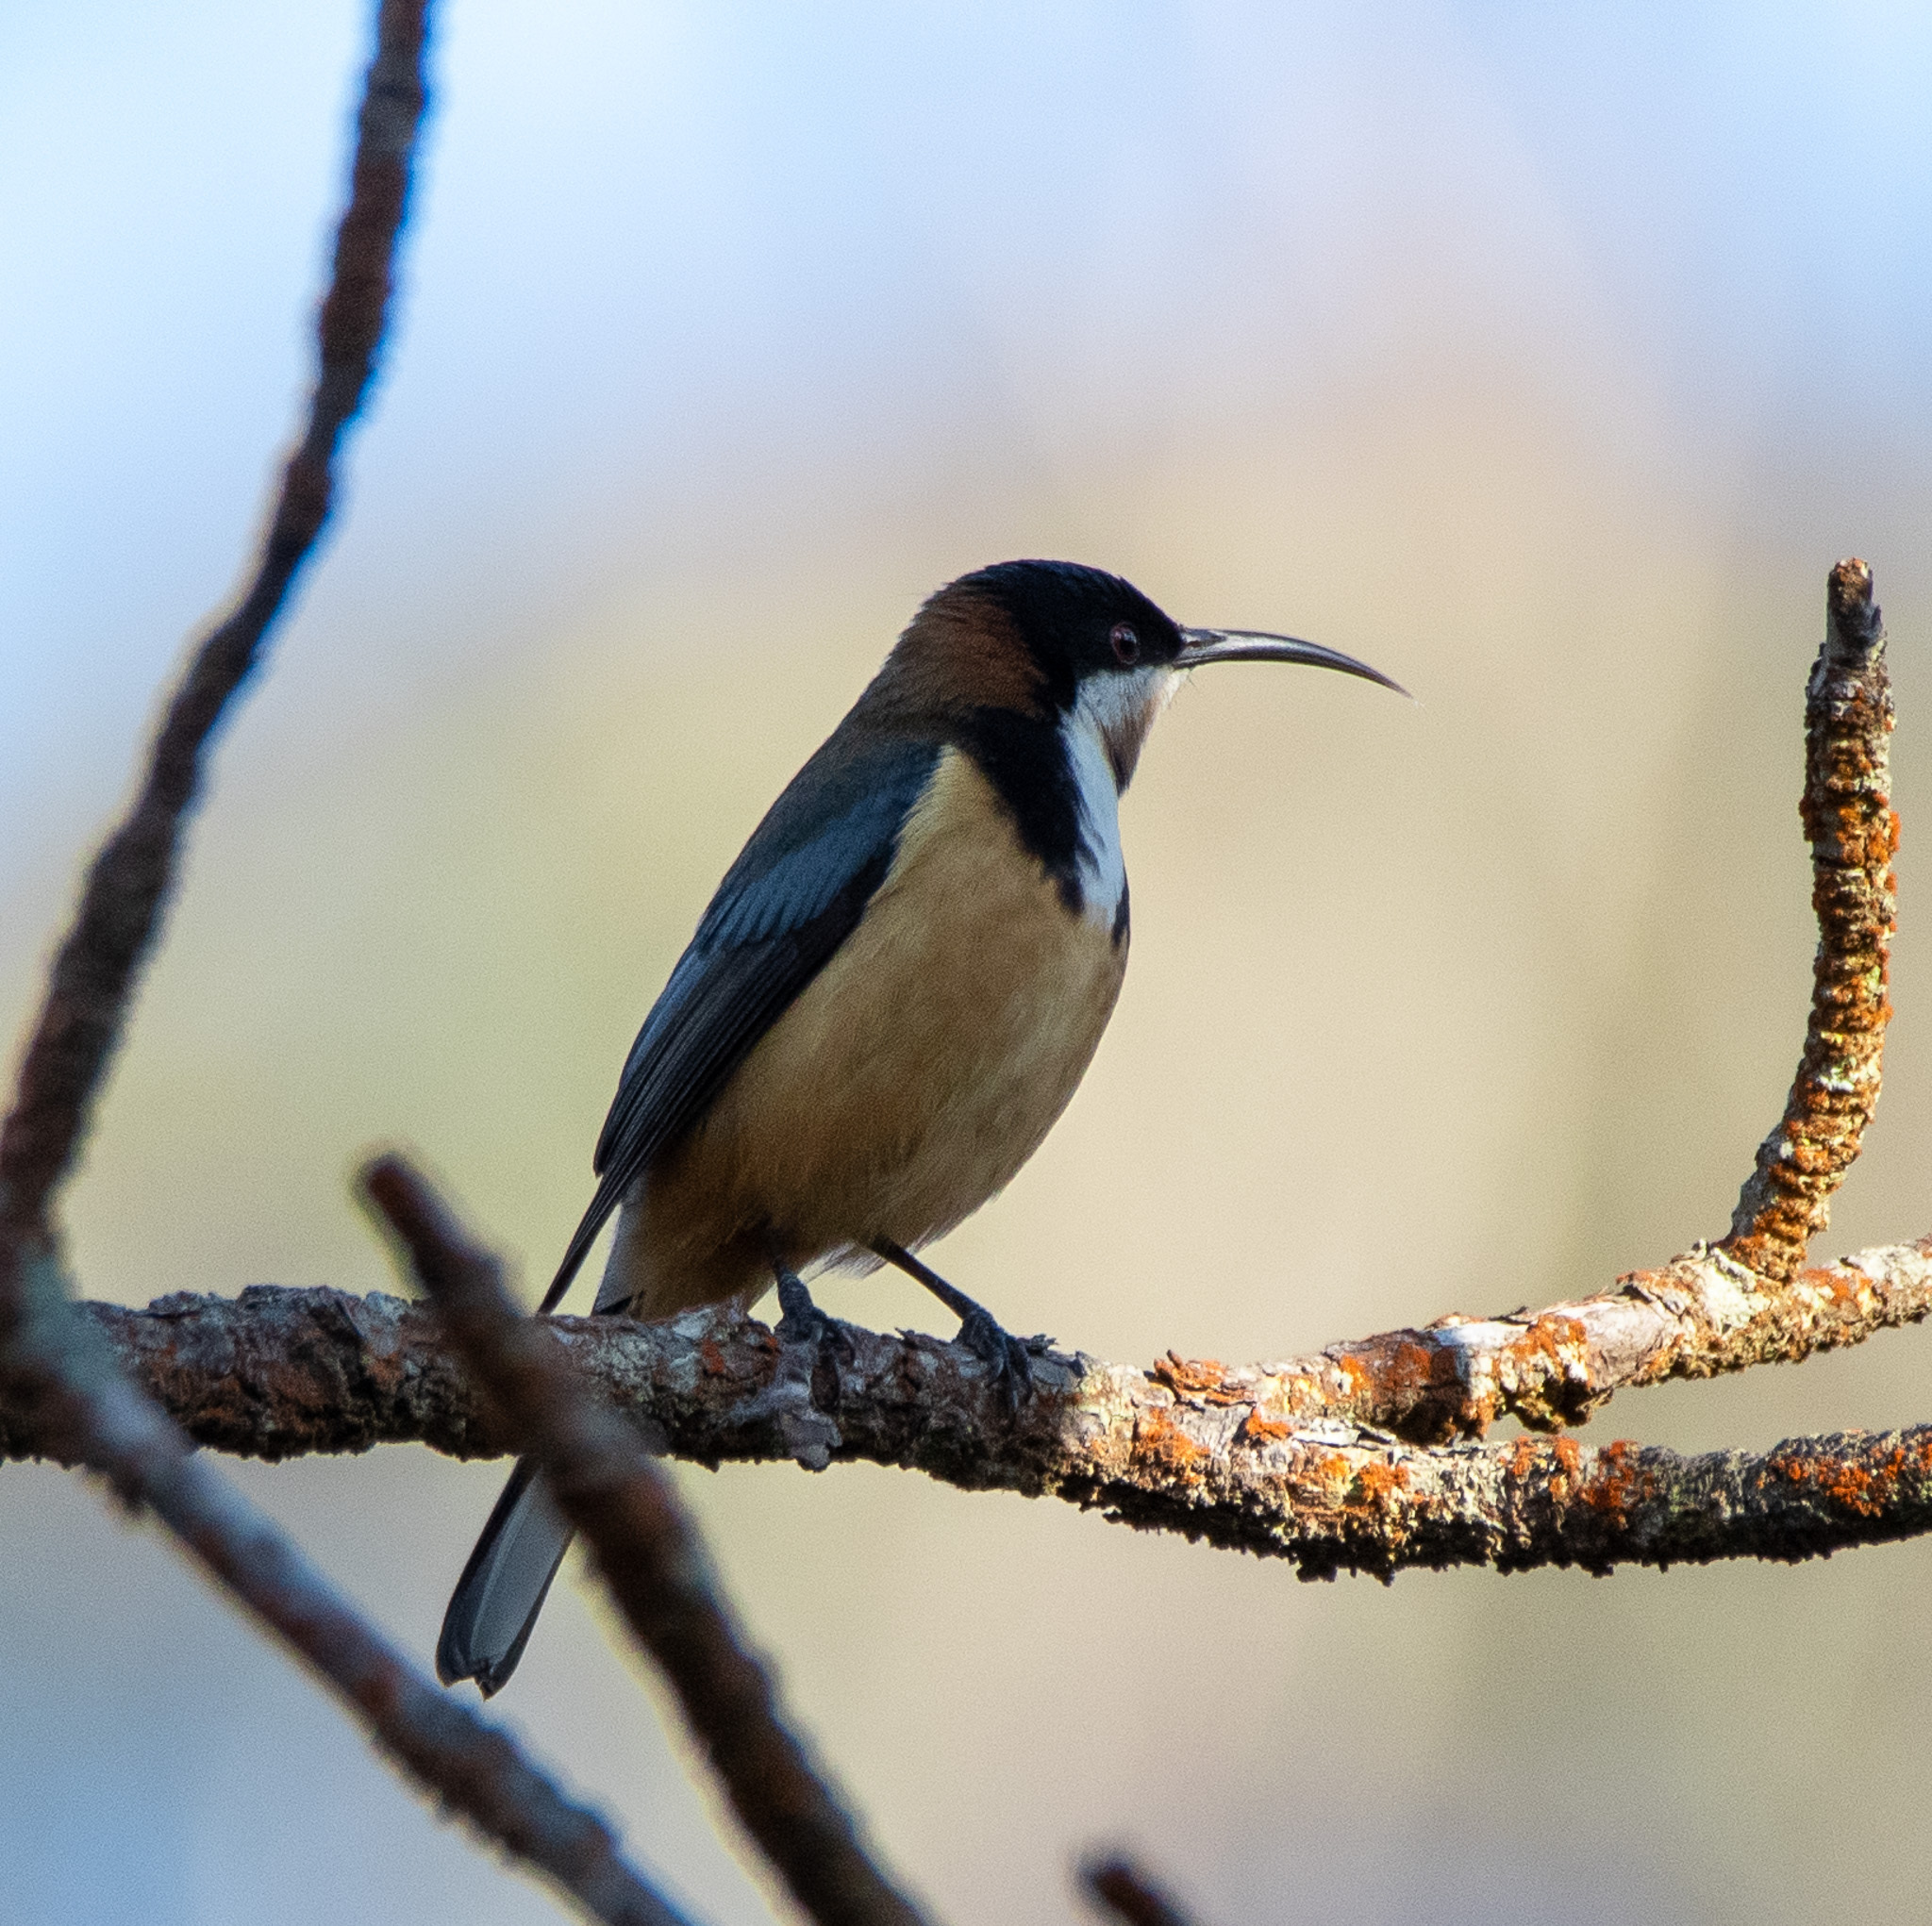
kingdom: Animalia
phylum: Chordata
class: Aves
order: Passeriformes
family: Meliphagidae
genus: Acanthorhynchus
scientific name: Acanthorhynchus tenuirostris
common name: Eastern spinebill
